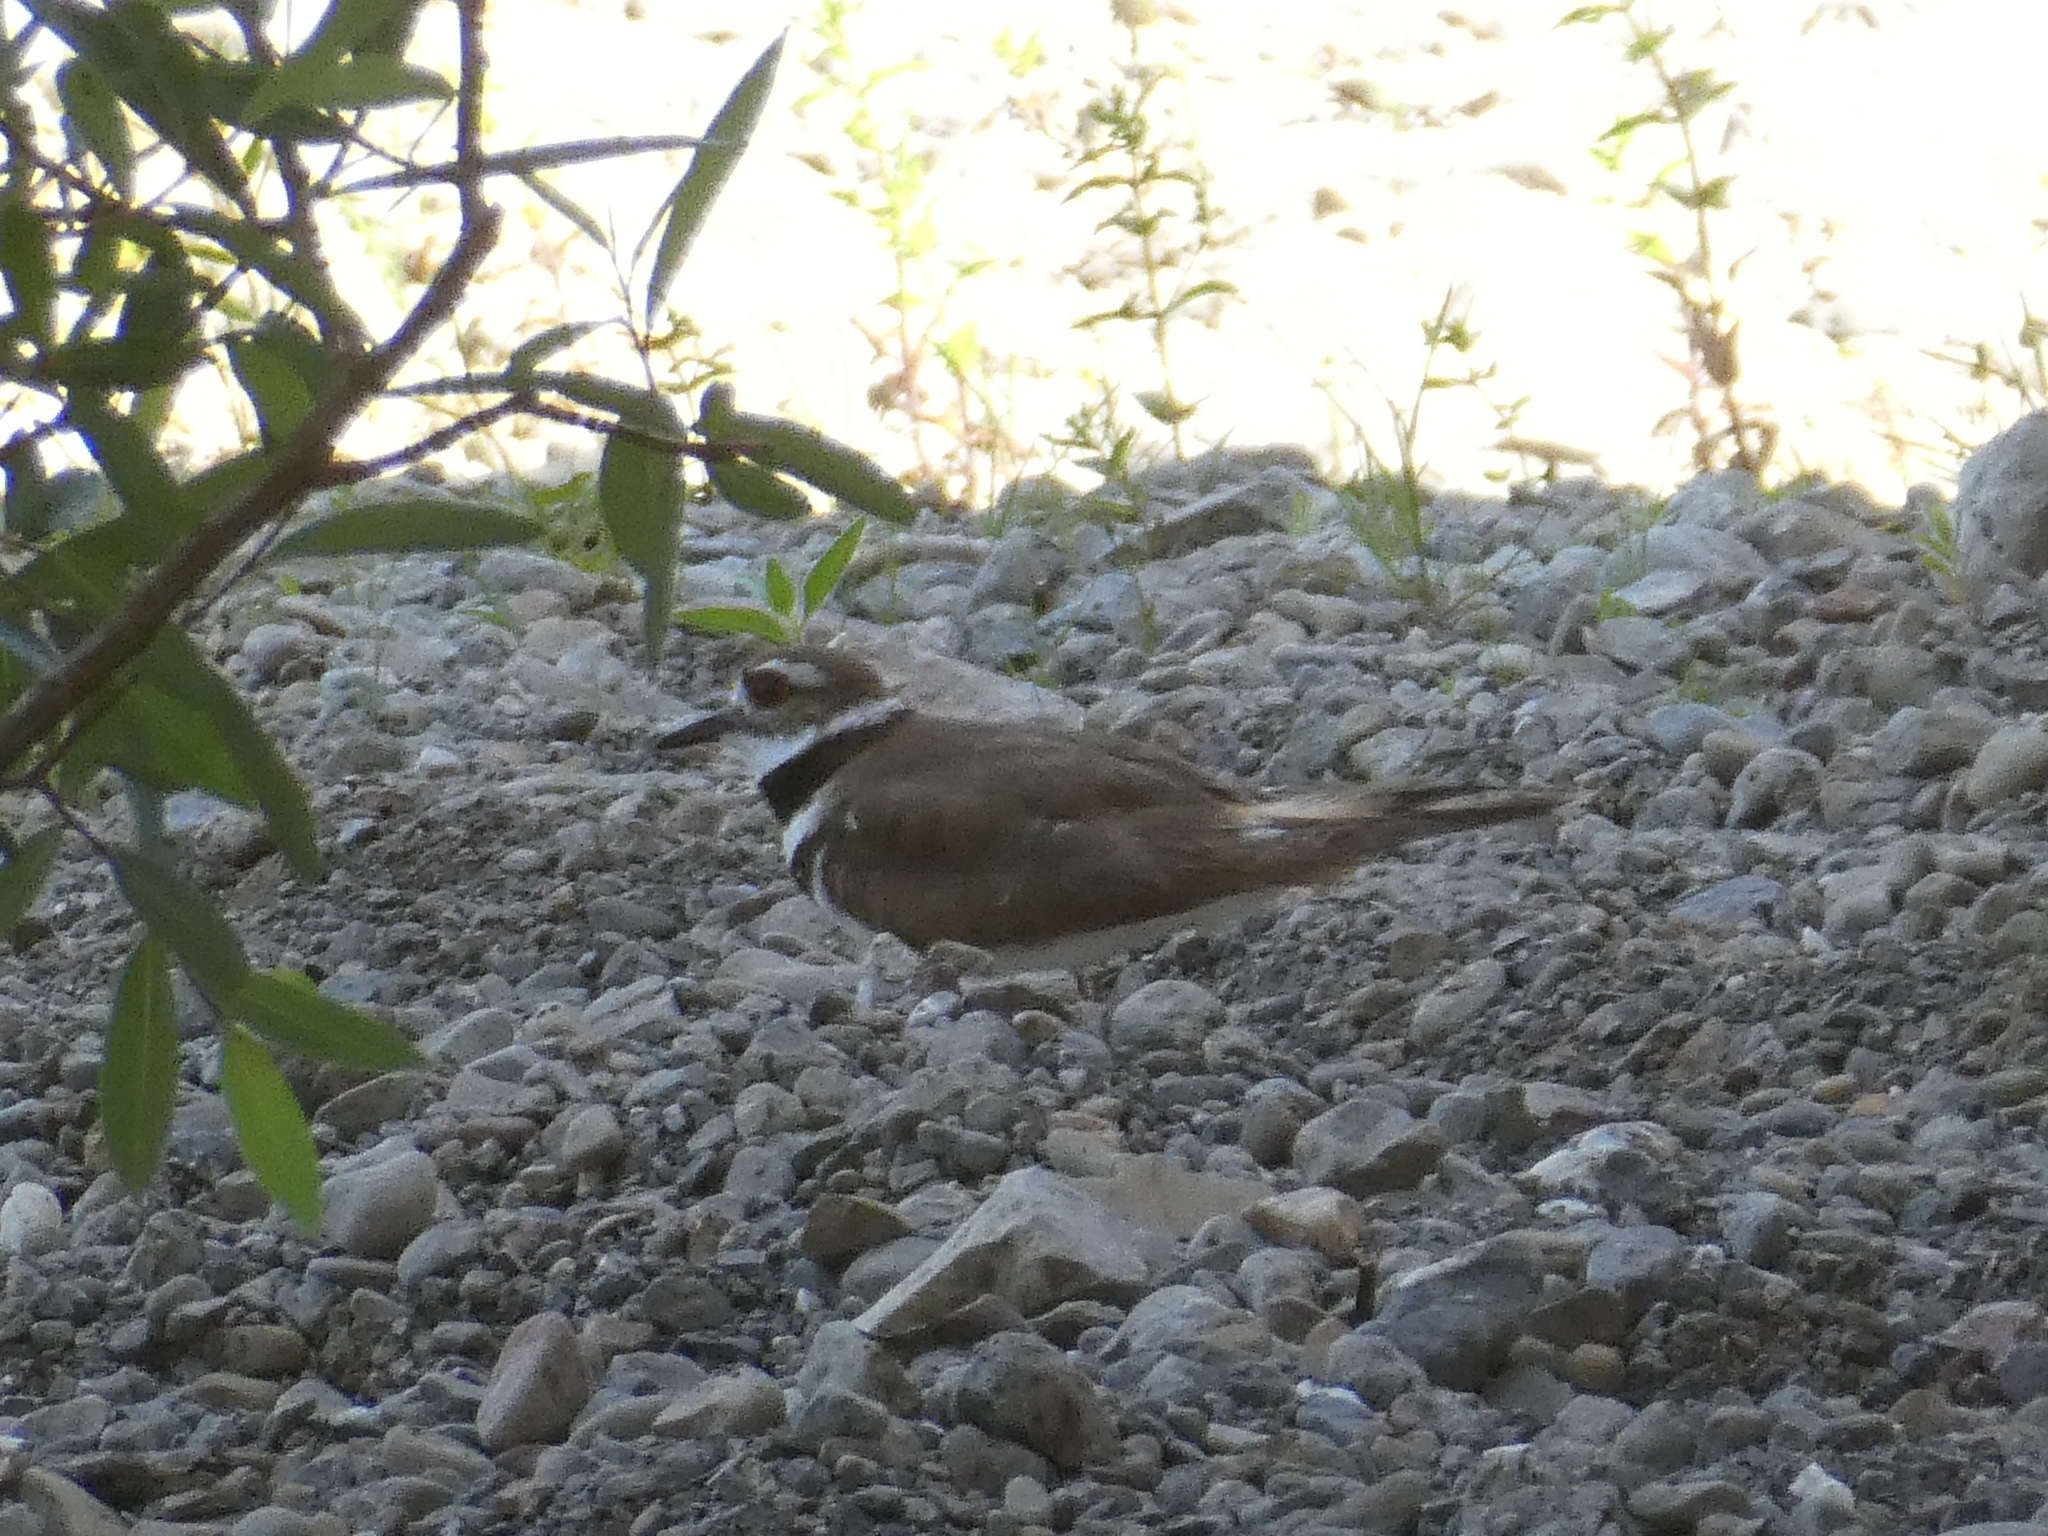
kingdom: Animalia
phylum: Chordata
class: Aves
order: Charadriiformes
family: Charadriidae
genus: Charadrius
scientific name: Charadrius vociferus
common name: Killdeer
